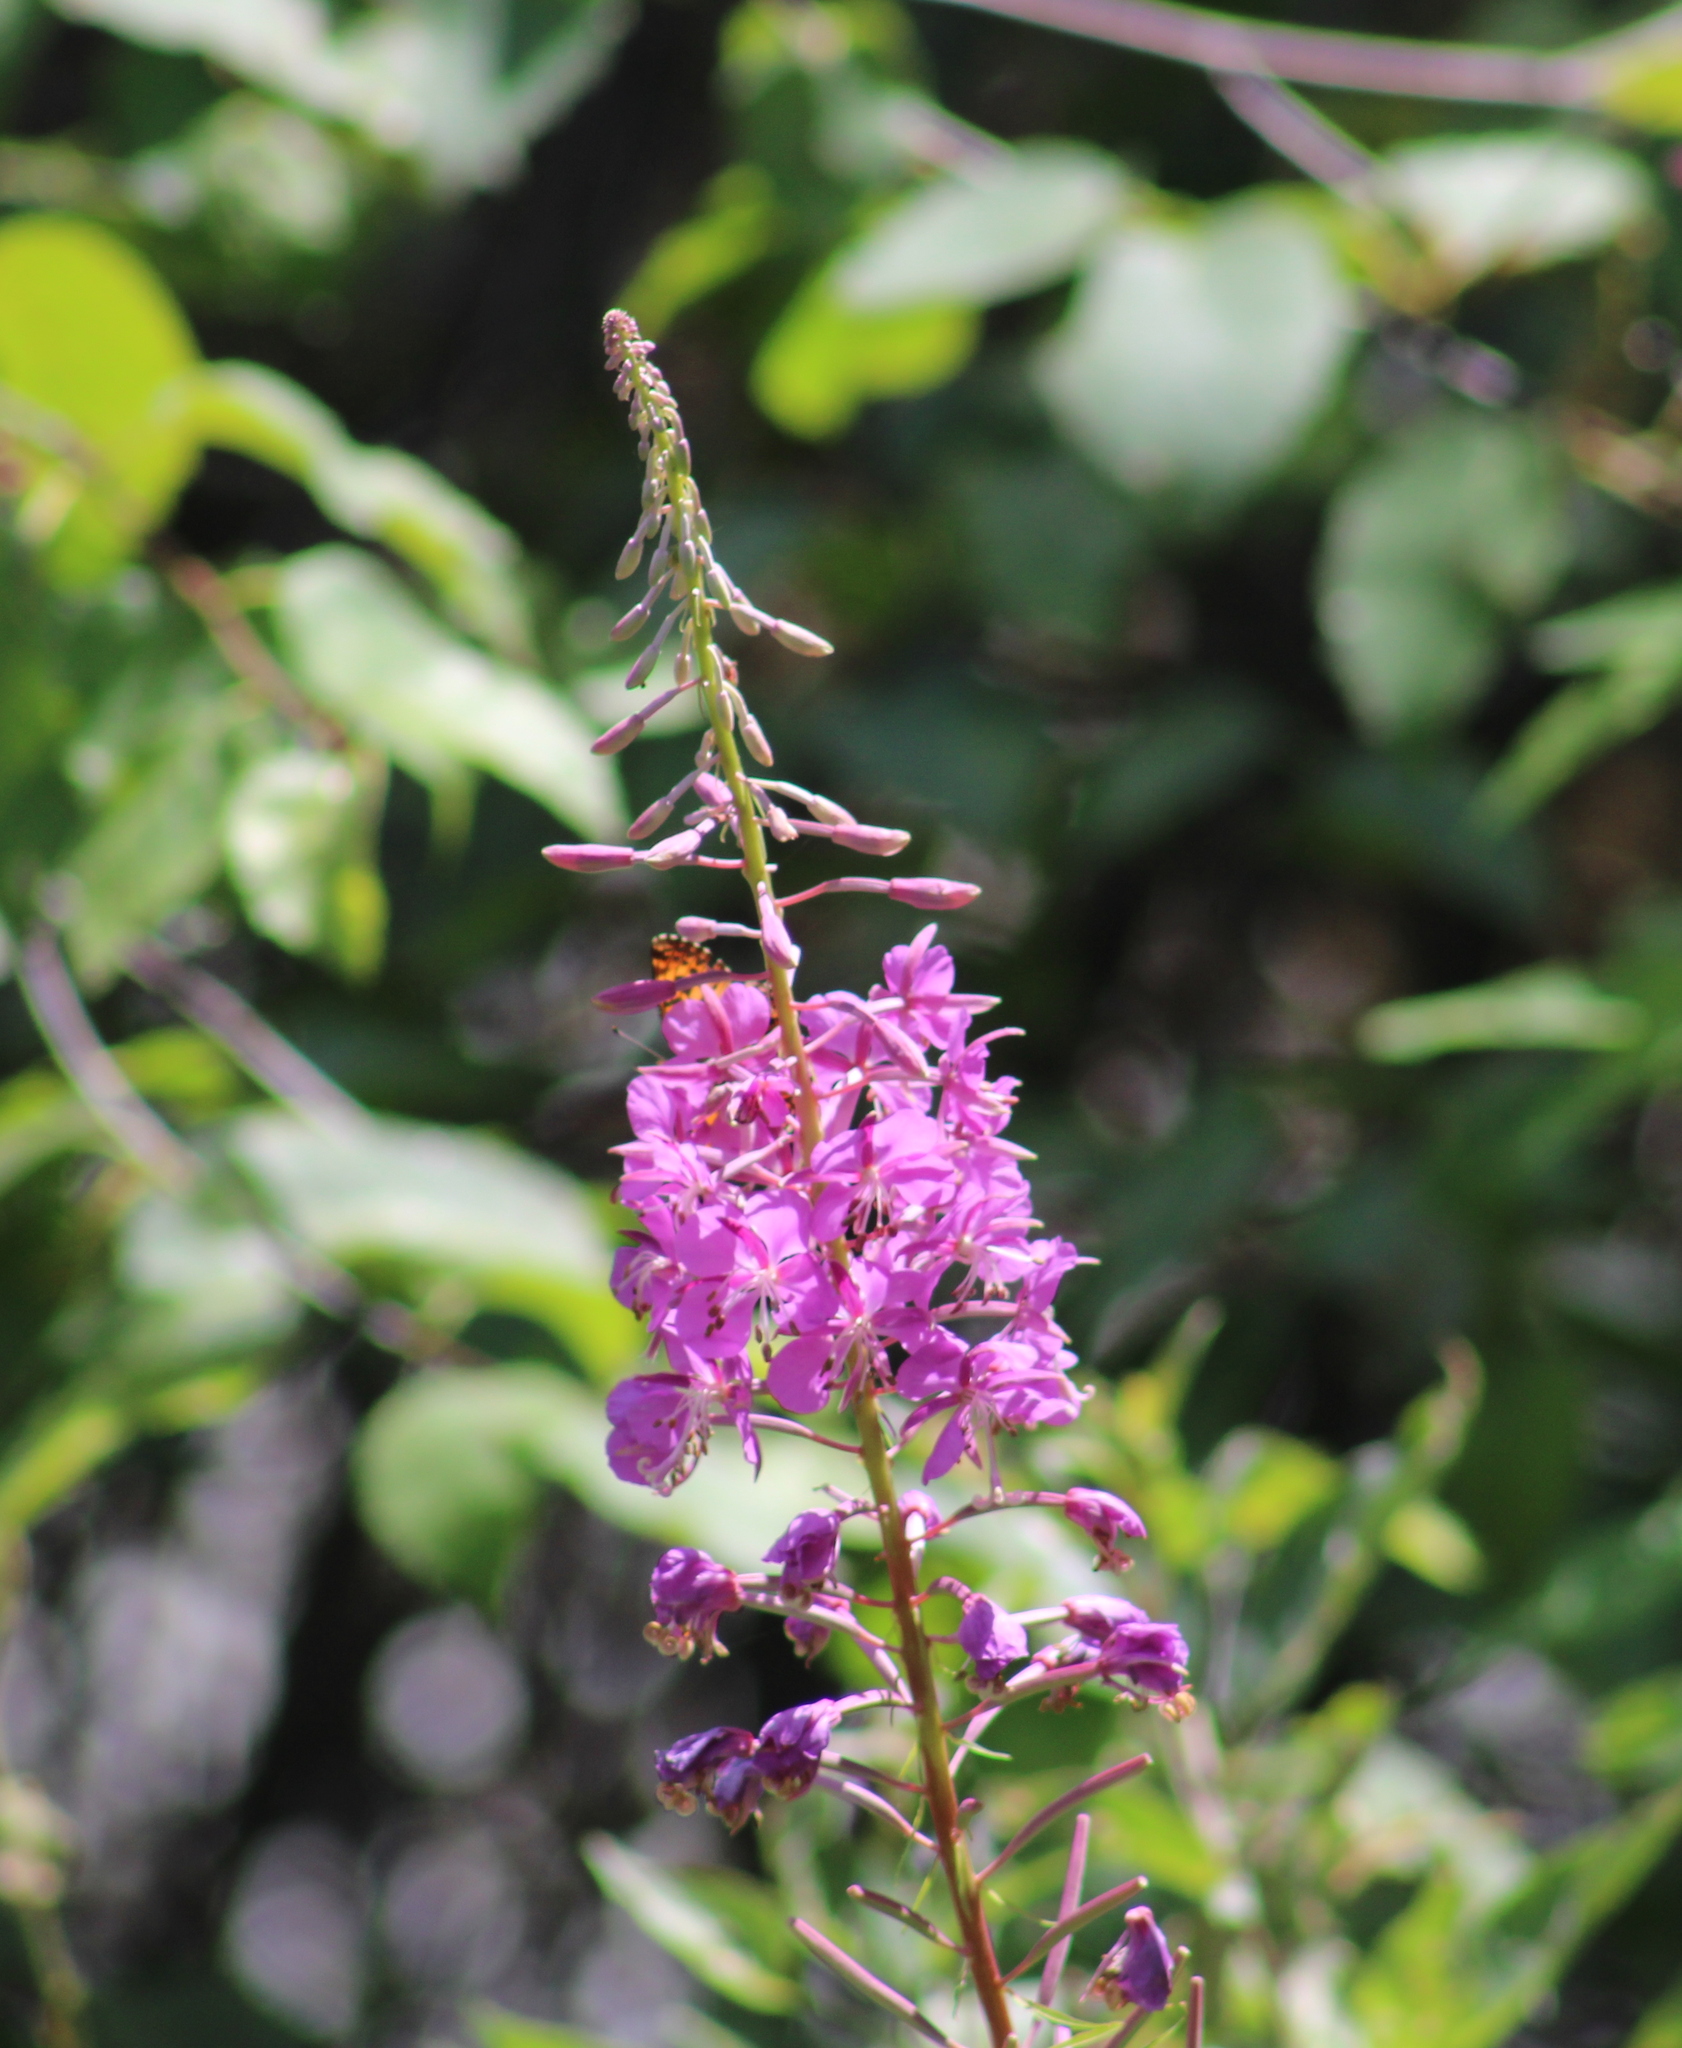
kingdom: Plantae
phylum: Tracheophyta
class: Magnoliopsida
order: Myrtales
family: Onagraceae
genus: Chamaenerion
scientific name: Chamaenerion angustifolium
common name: Fireweed
